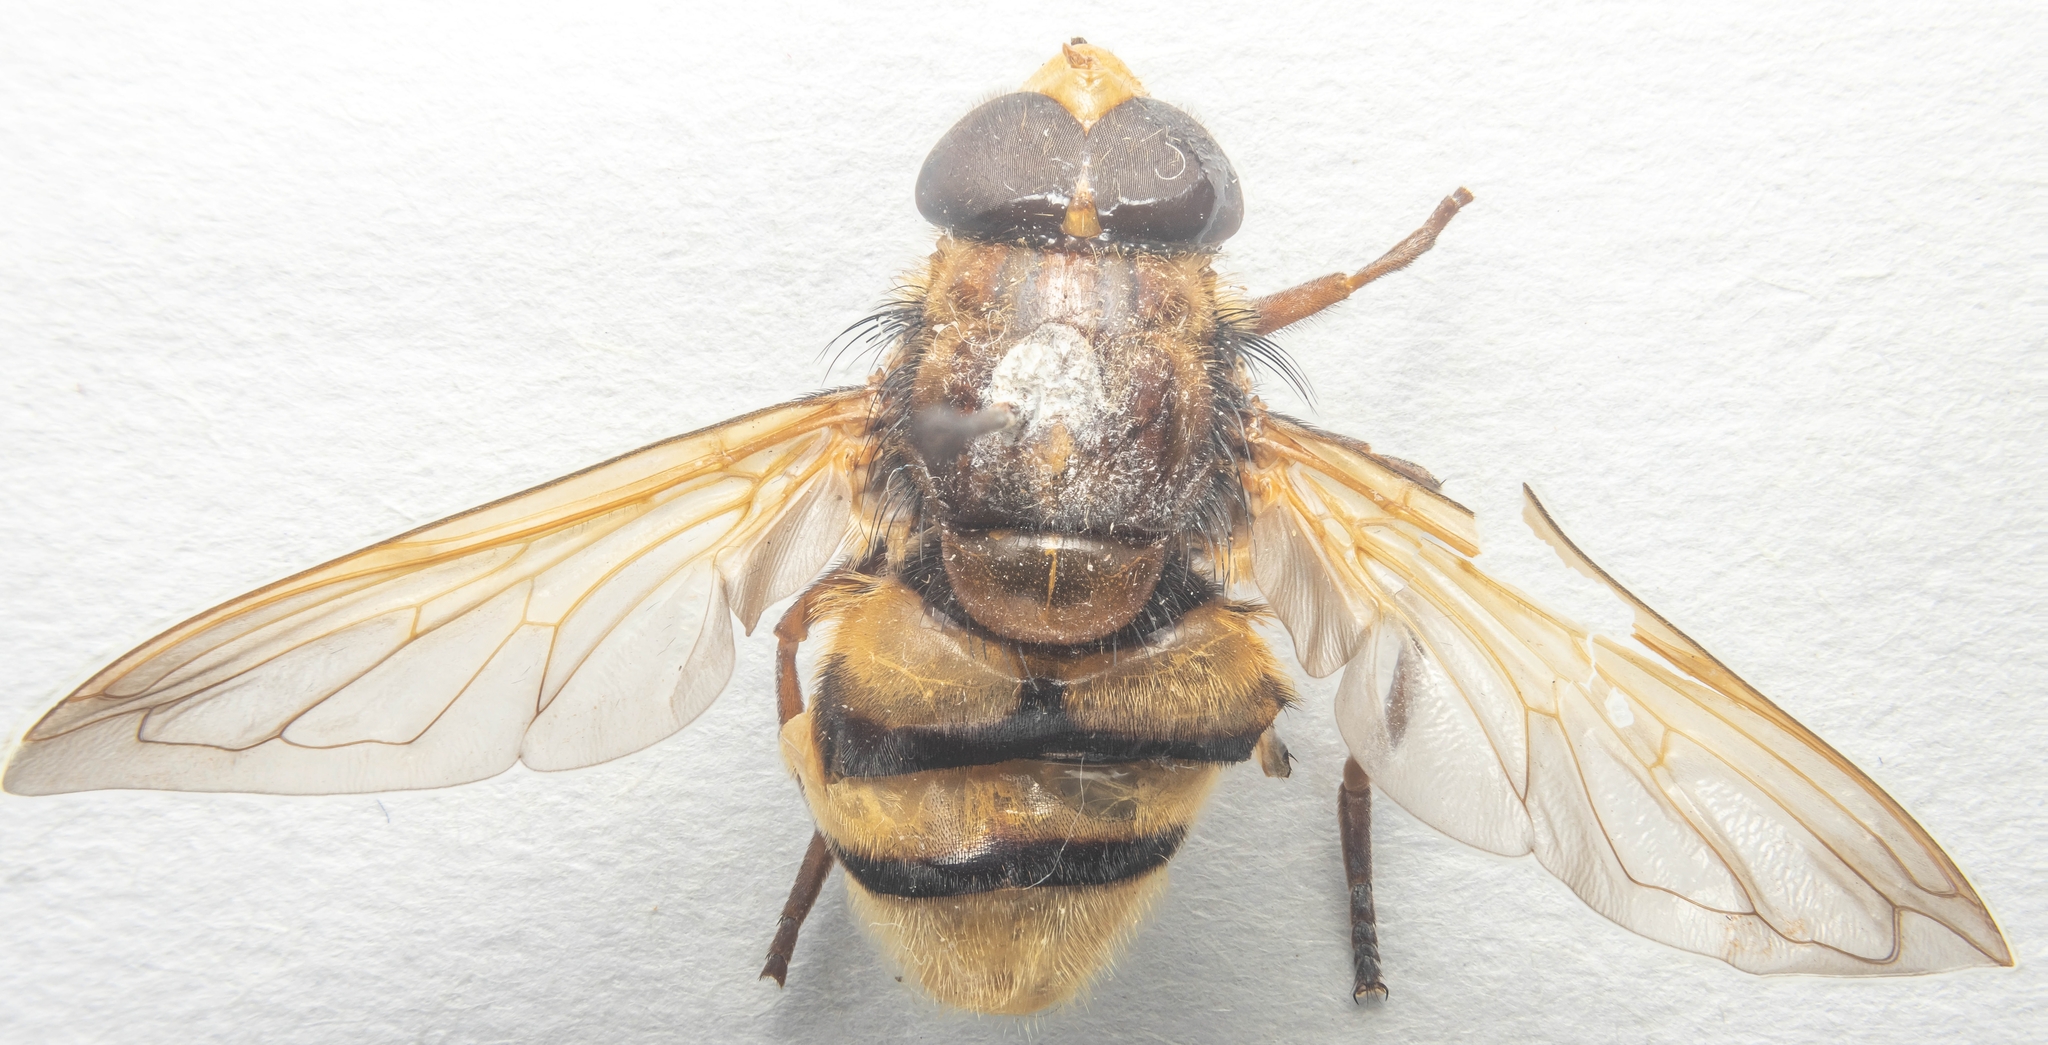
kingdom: Animalia
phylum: Arthropoda
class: Insecta
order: Diptera
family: Syrphidae
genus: Volucella
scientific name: Volucella zonaria
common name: Hornet hoverfly
